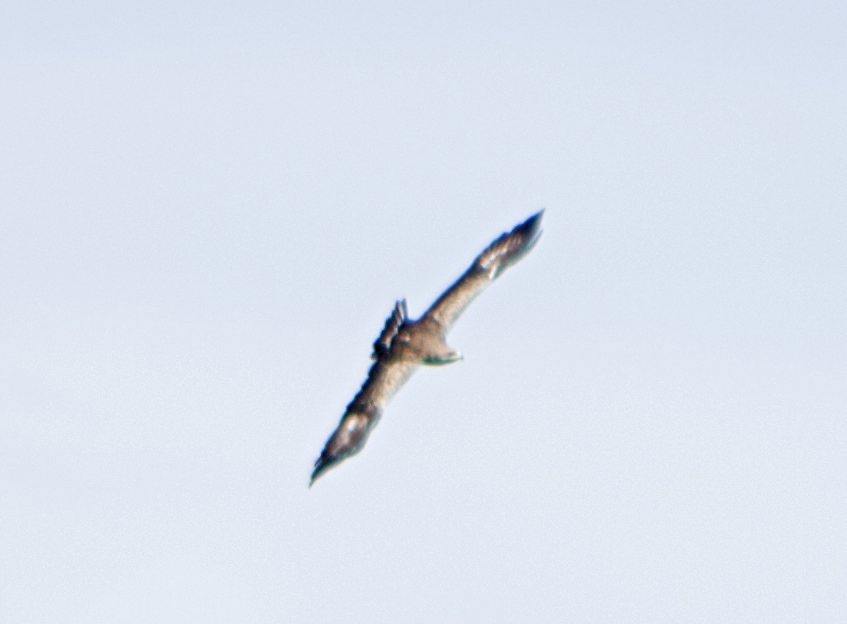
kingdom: Animalia
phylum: Chordata
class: Aves
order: Accipitriformes
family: Accipitridae
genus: Aquila
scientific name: Aquila pomarina
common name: Lesser spotted eagle
